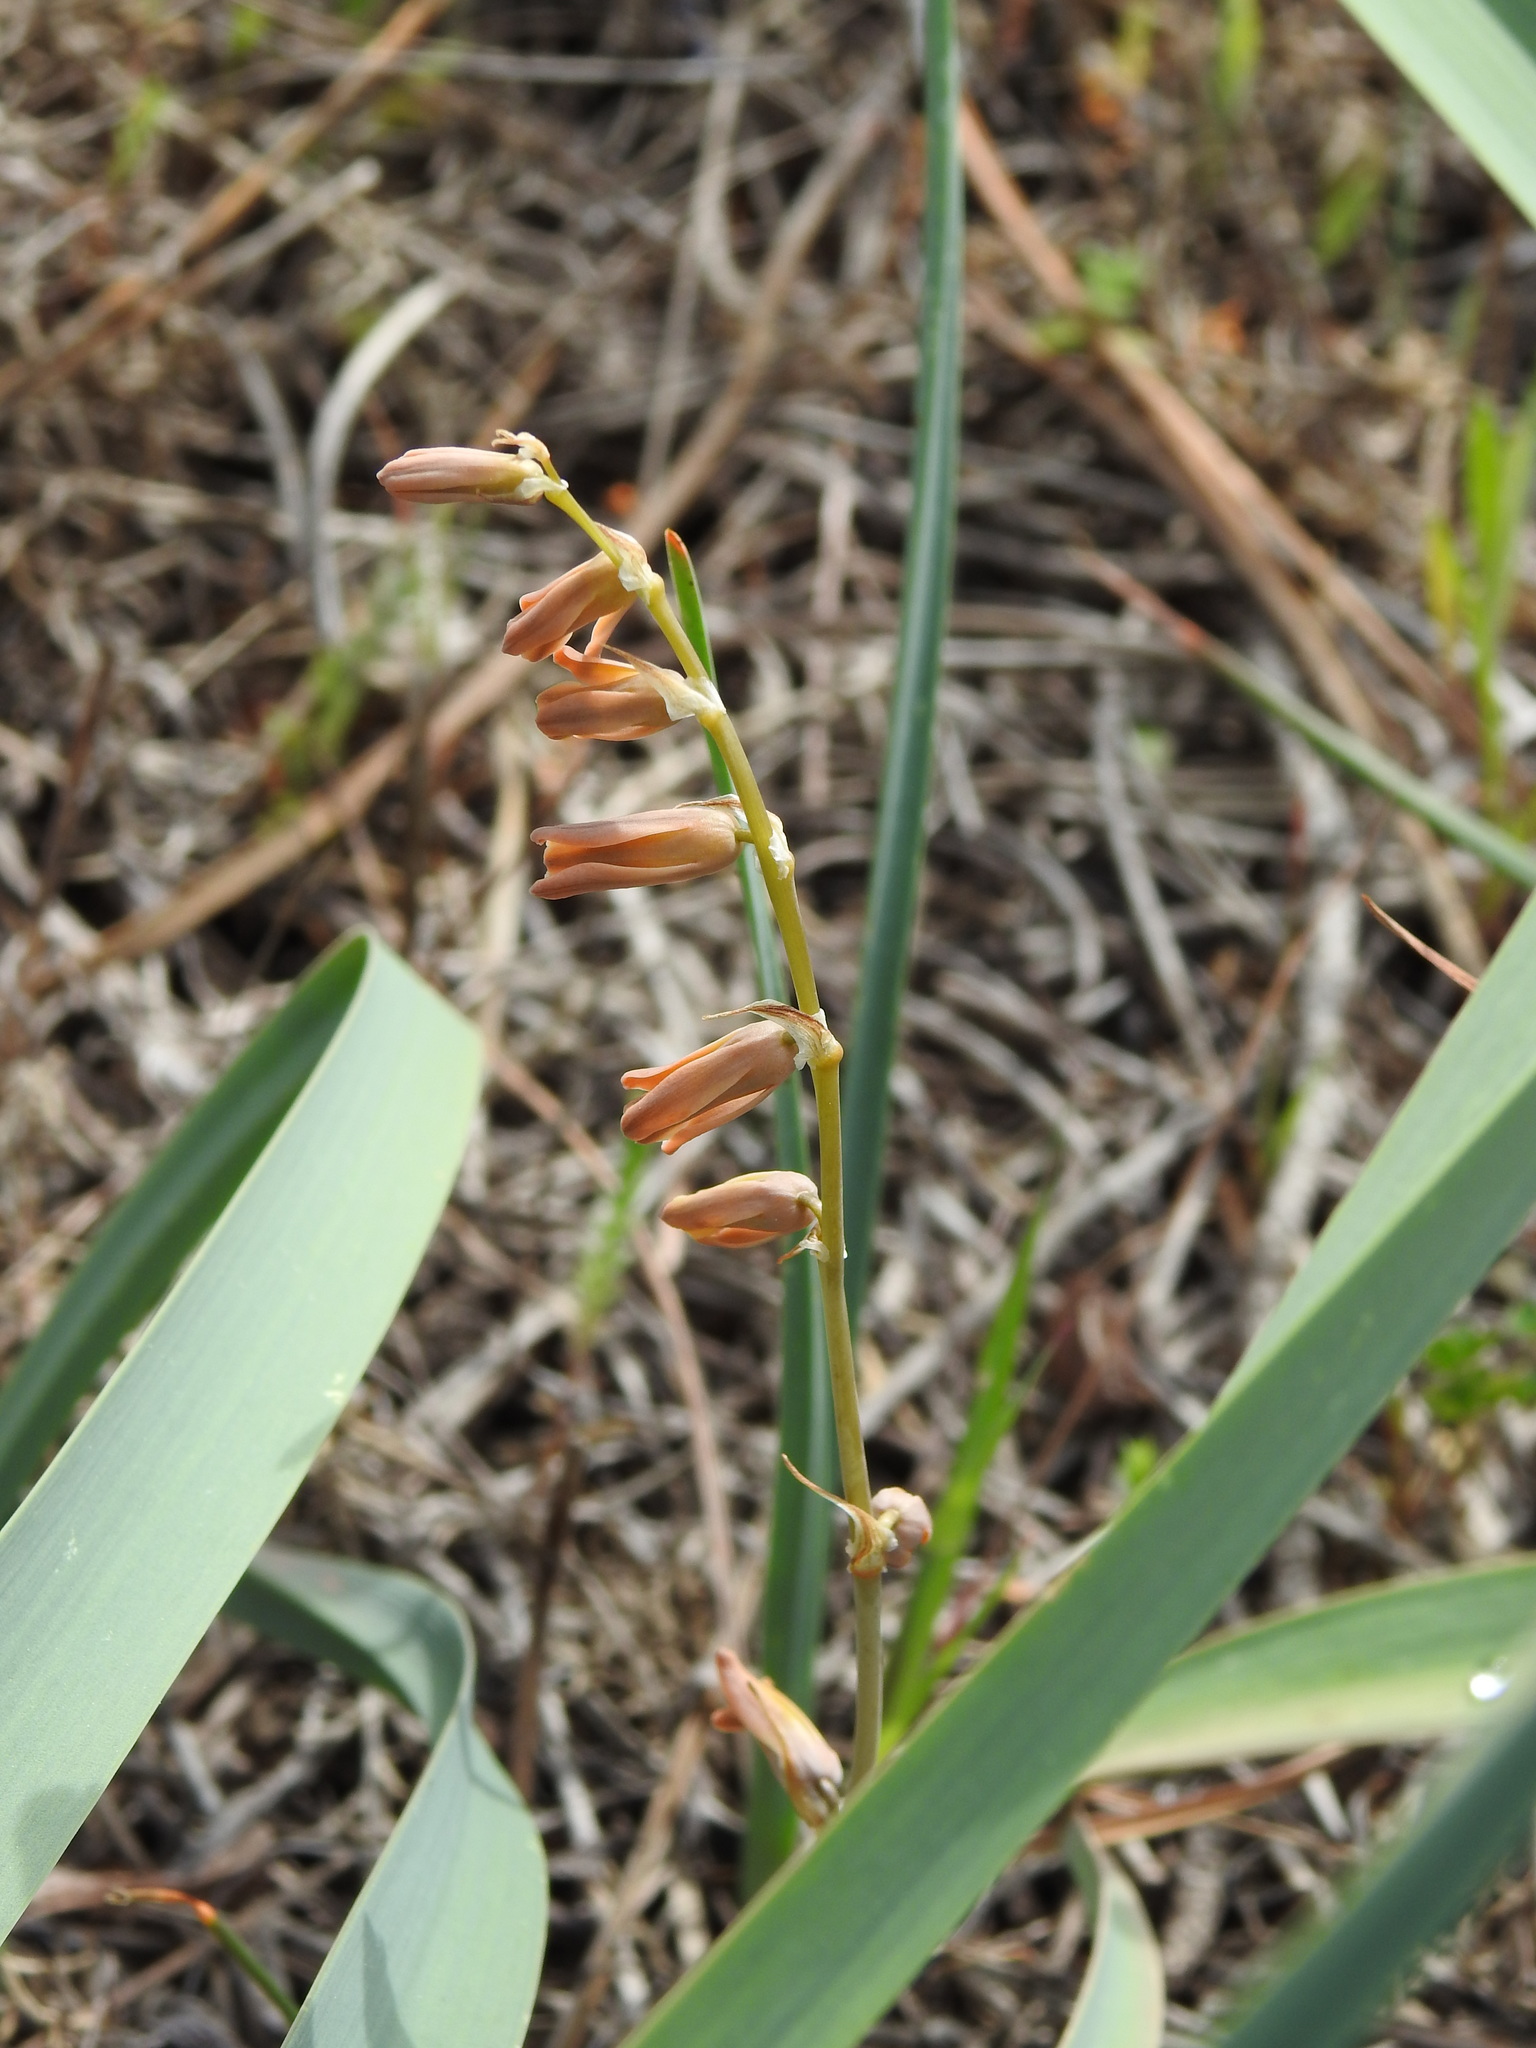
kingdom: Plantae
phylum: Tracheophyta
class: Liliopsida
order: Asparagales
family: Asparagaceae
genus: Dipcadi
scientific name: Dipcadi serotinum
